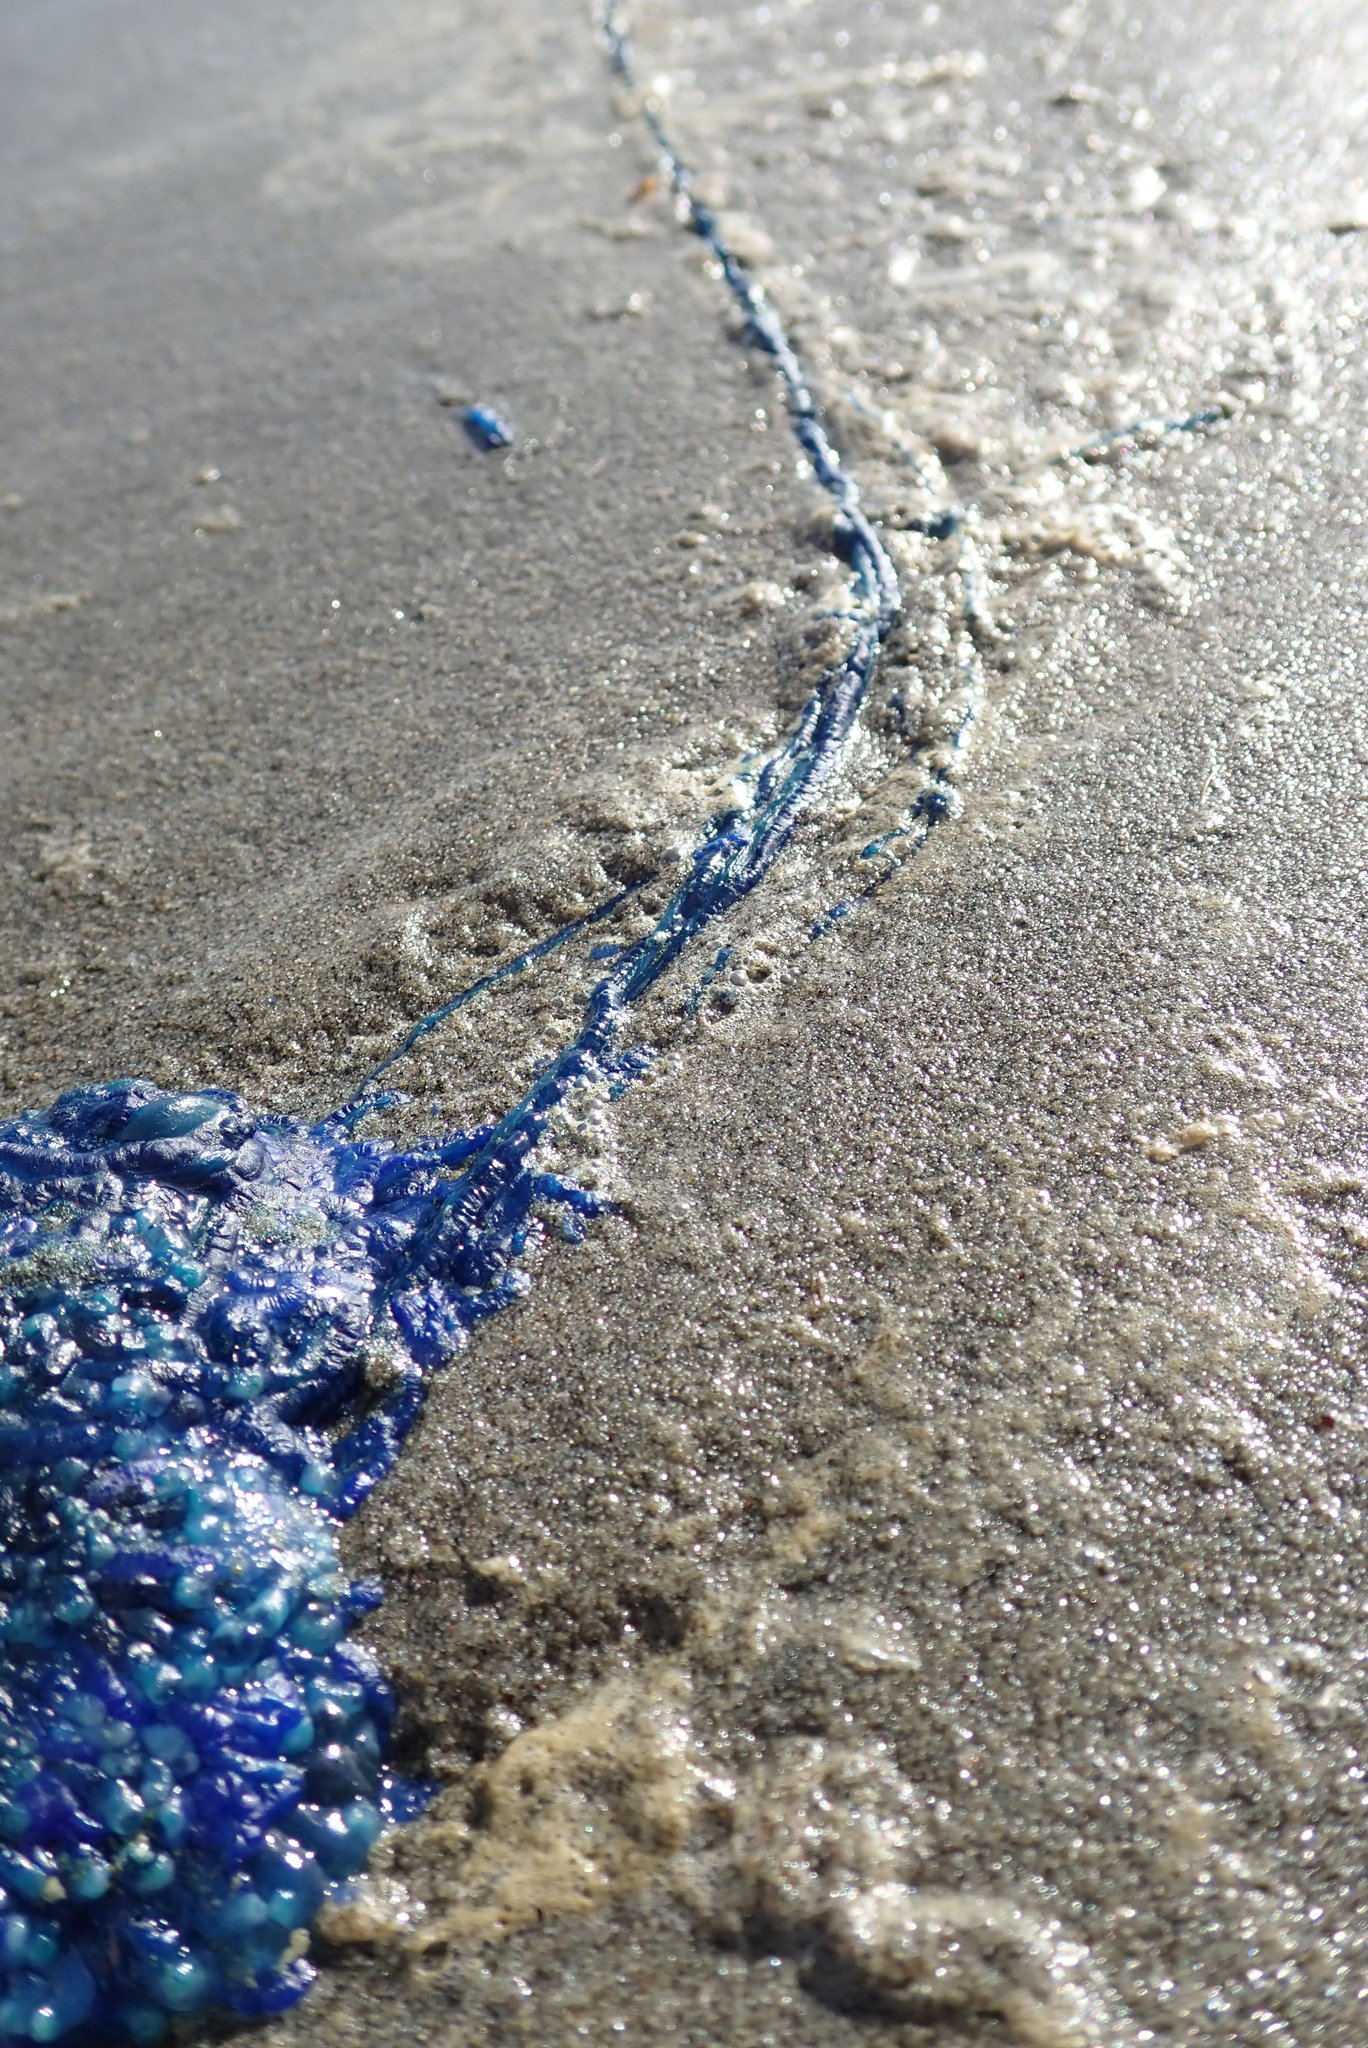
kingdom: Animalia
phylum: Cnidaria
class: Hydrozoa
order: Siphonophorae
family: Physaliidae
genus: Physalia
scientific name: Physalia physalis
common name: Portuguese man-of-war
